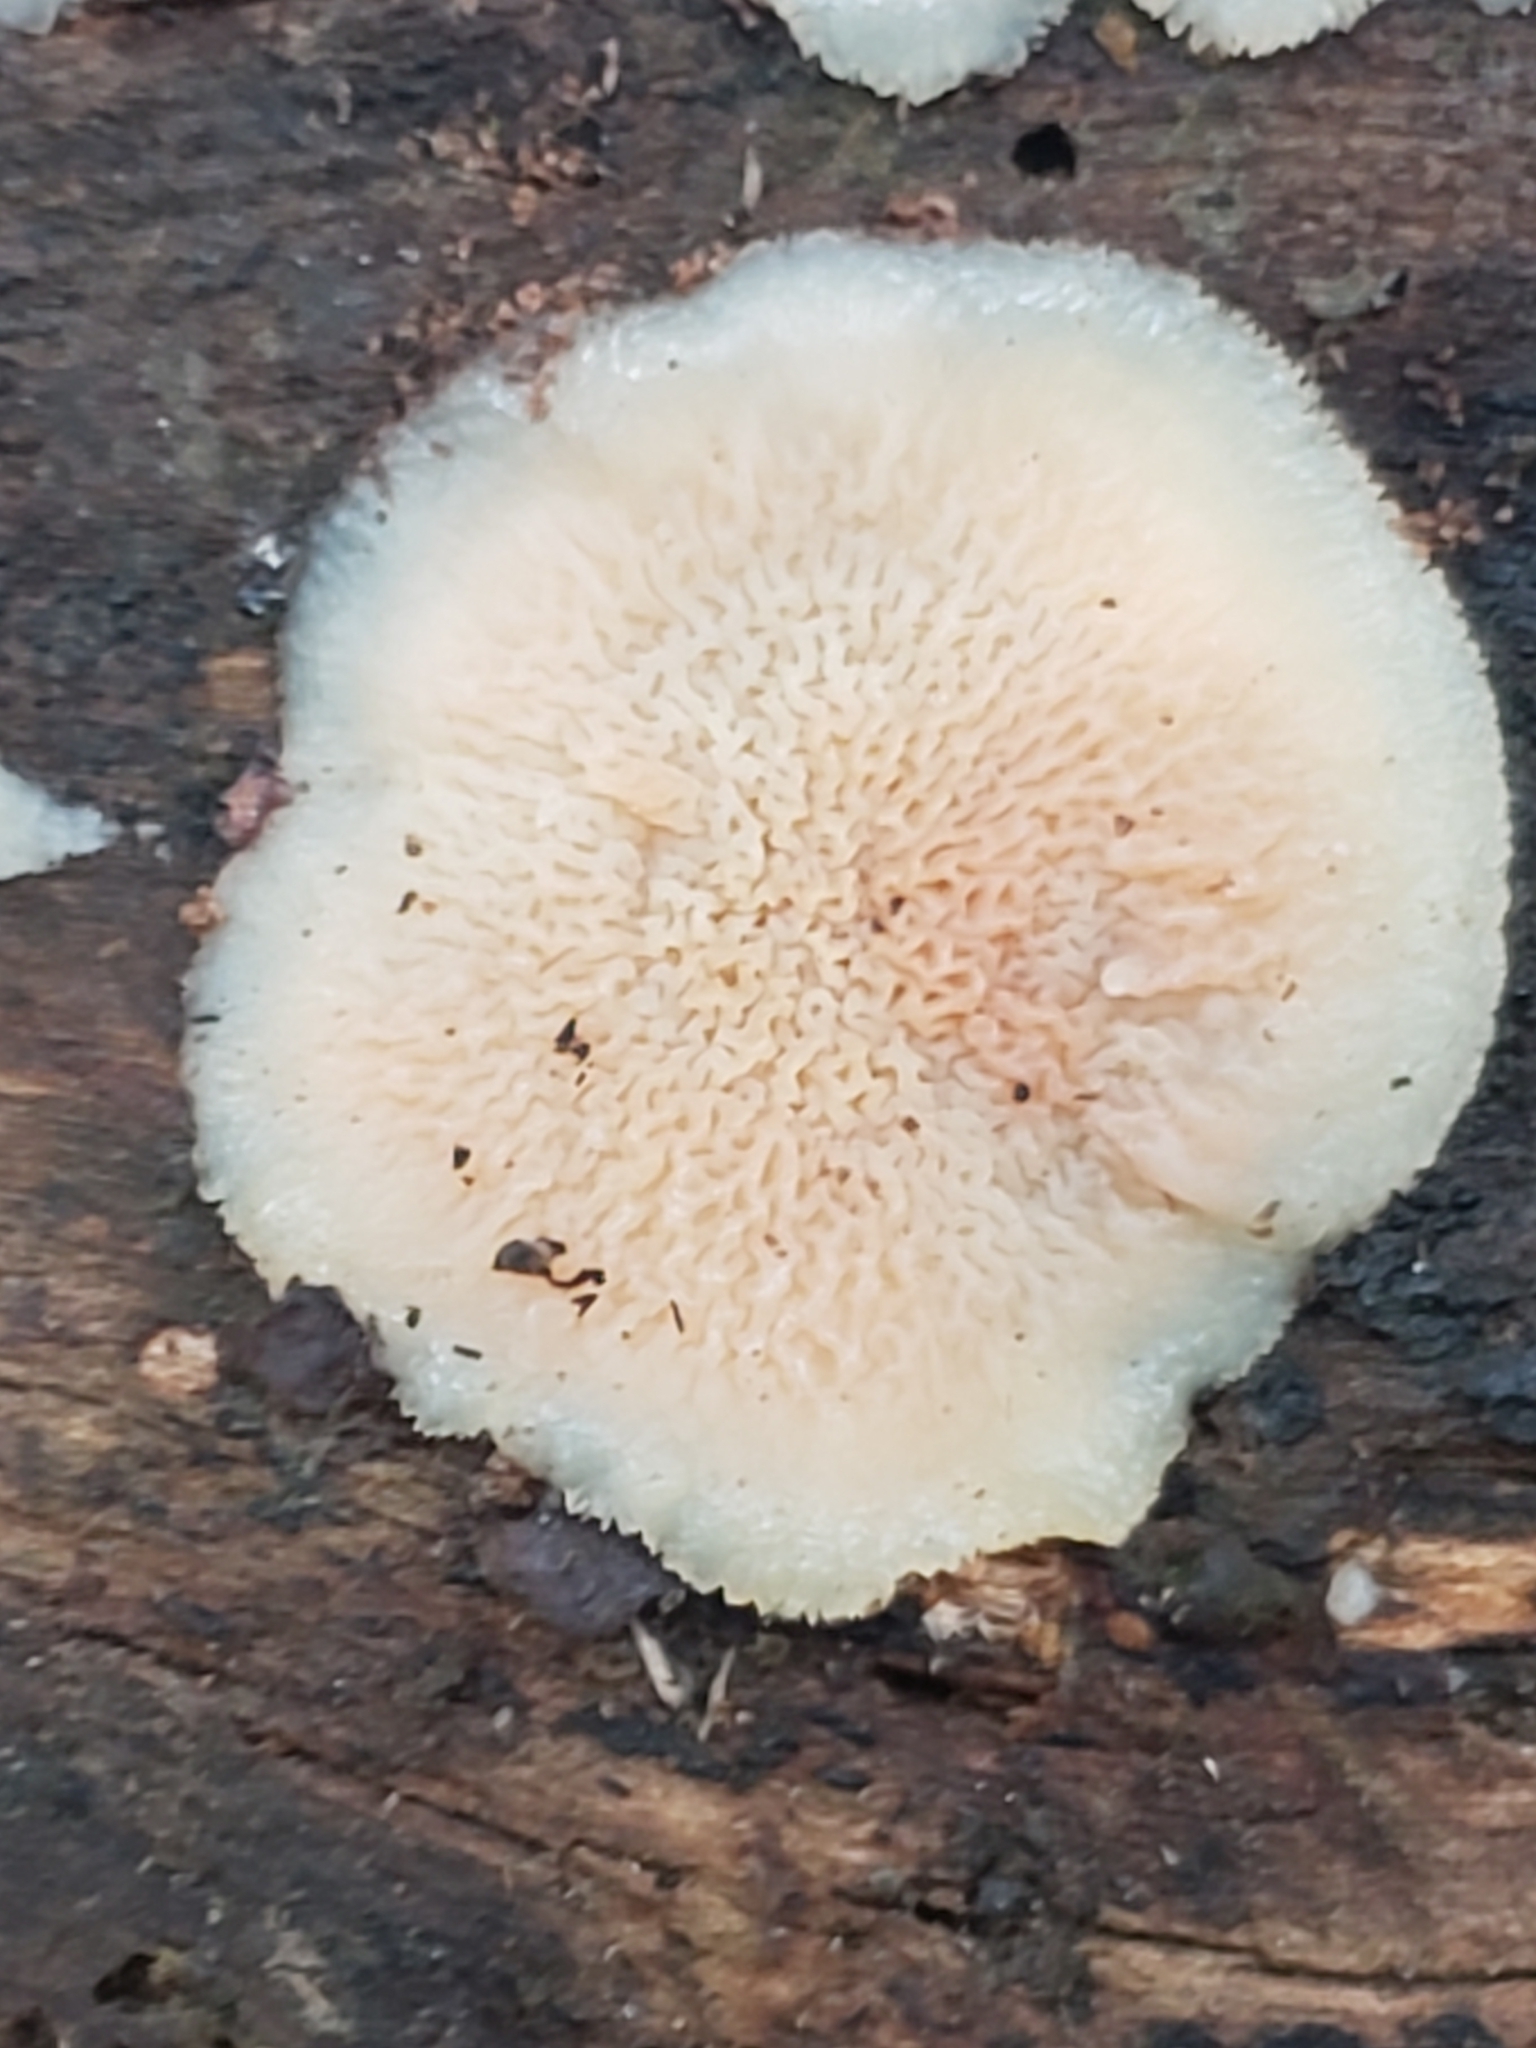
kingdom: Fungi
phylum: Basidiomycota
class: Agaricomycetes
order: Polyporales
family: Meruliaceae
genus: Phlebia
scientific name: Phlebia tremellosa
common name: Jelly rot
